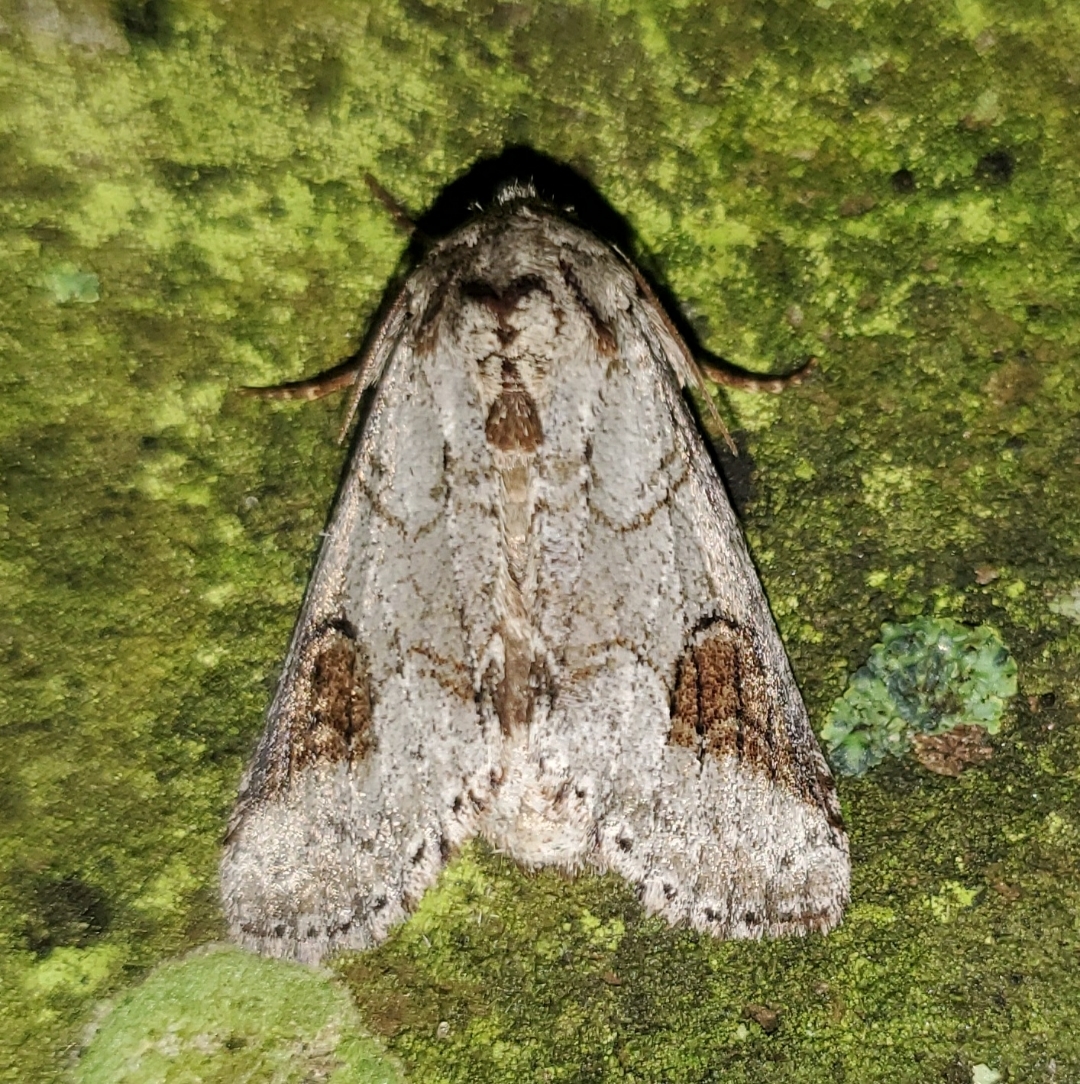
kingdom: Animalia
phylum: Arthropoda
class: Insecta
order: Lepidoptera
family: Notodontidae
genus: Lochmaeus
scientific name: Lochmaeus bilineata
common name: Double-lined prominent
